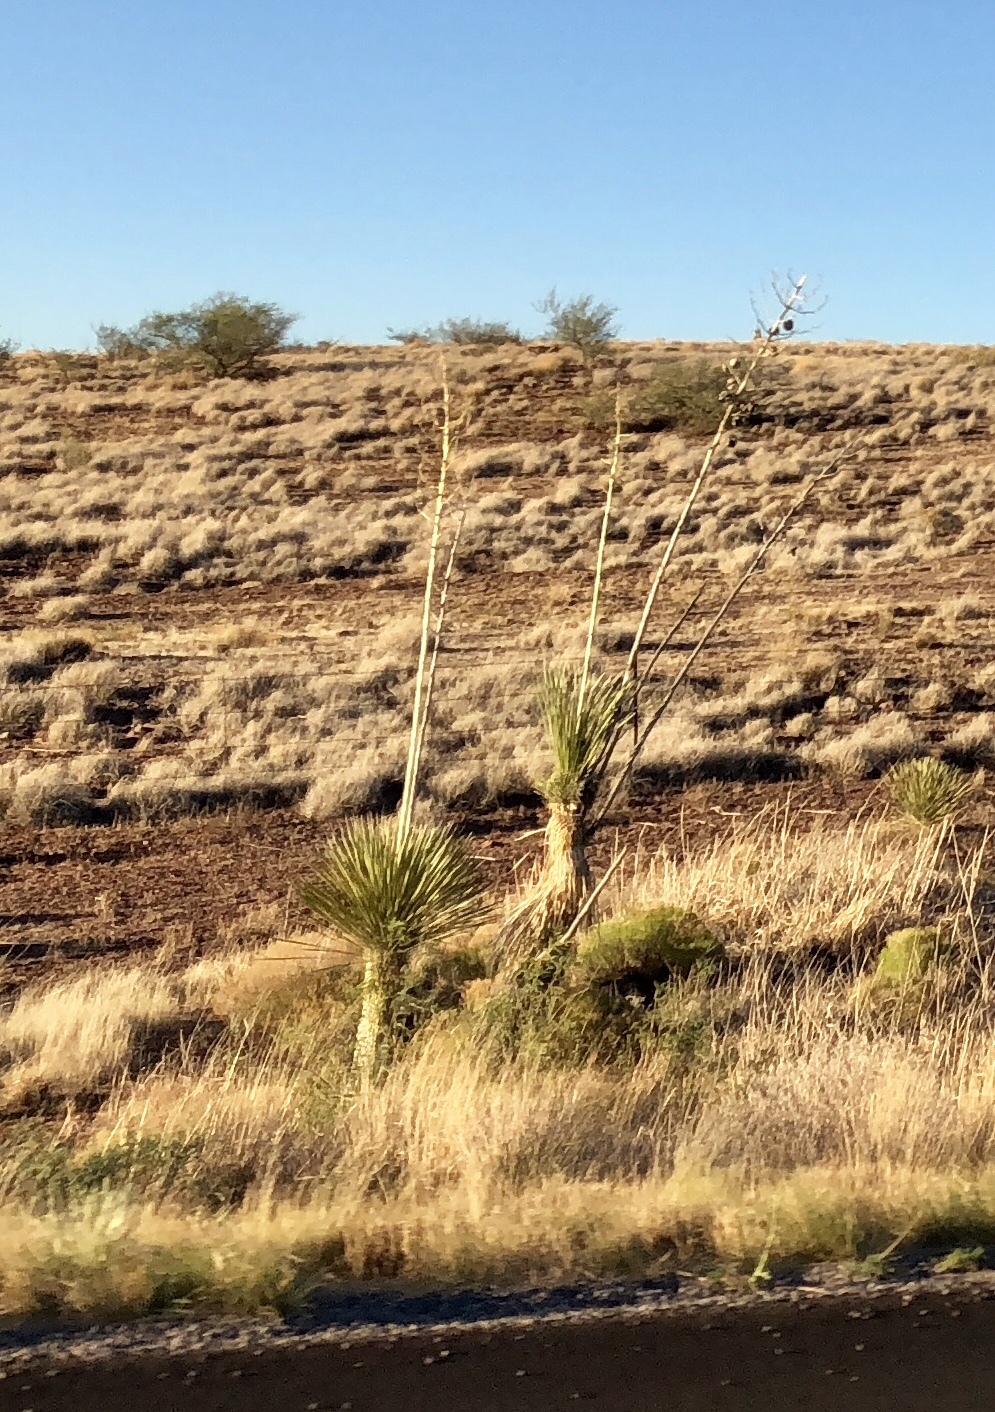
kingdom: Plantae
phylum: Tracheophyta
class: Liliopsida
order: Asparagales
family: Asparagaceae
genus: Yucca
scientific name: Yucca elata
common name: Palmella
